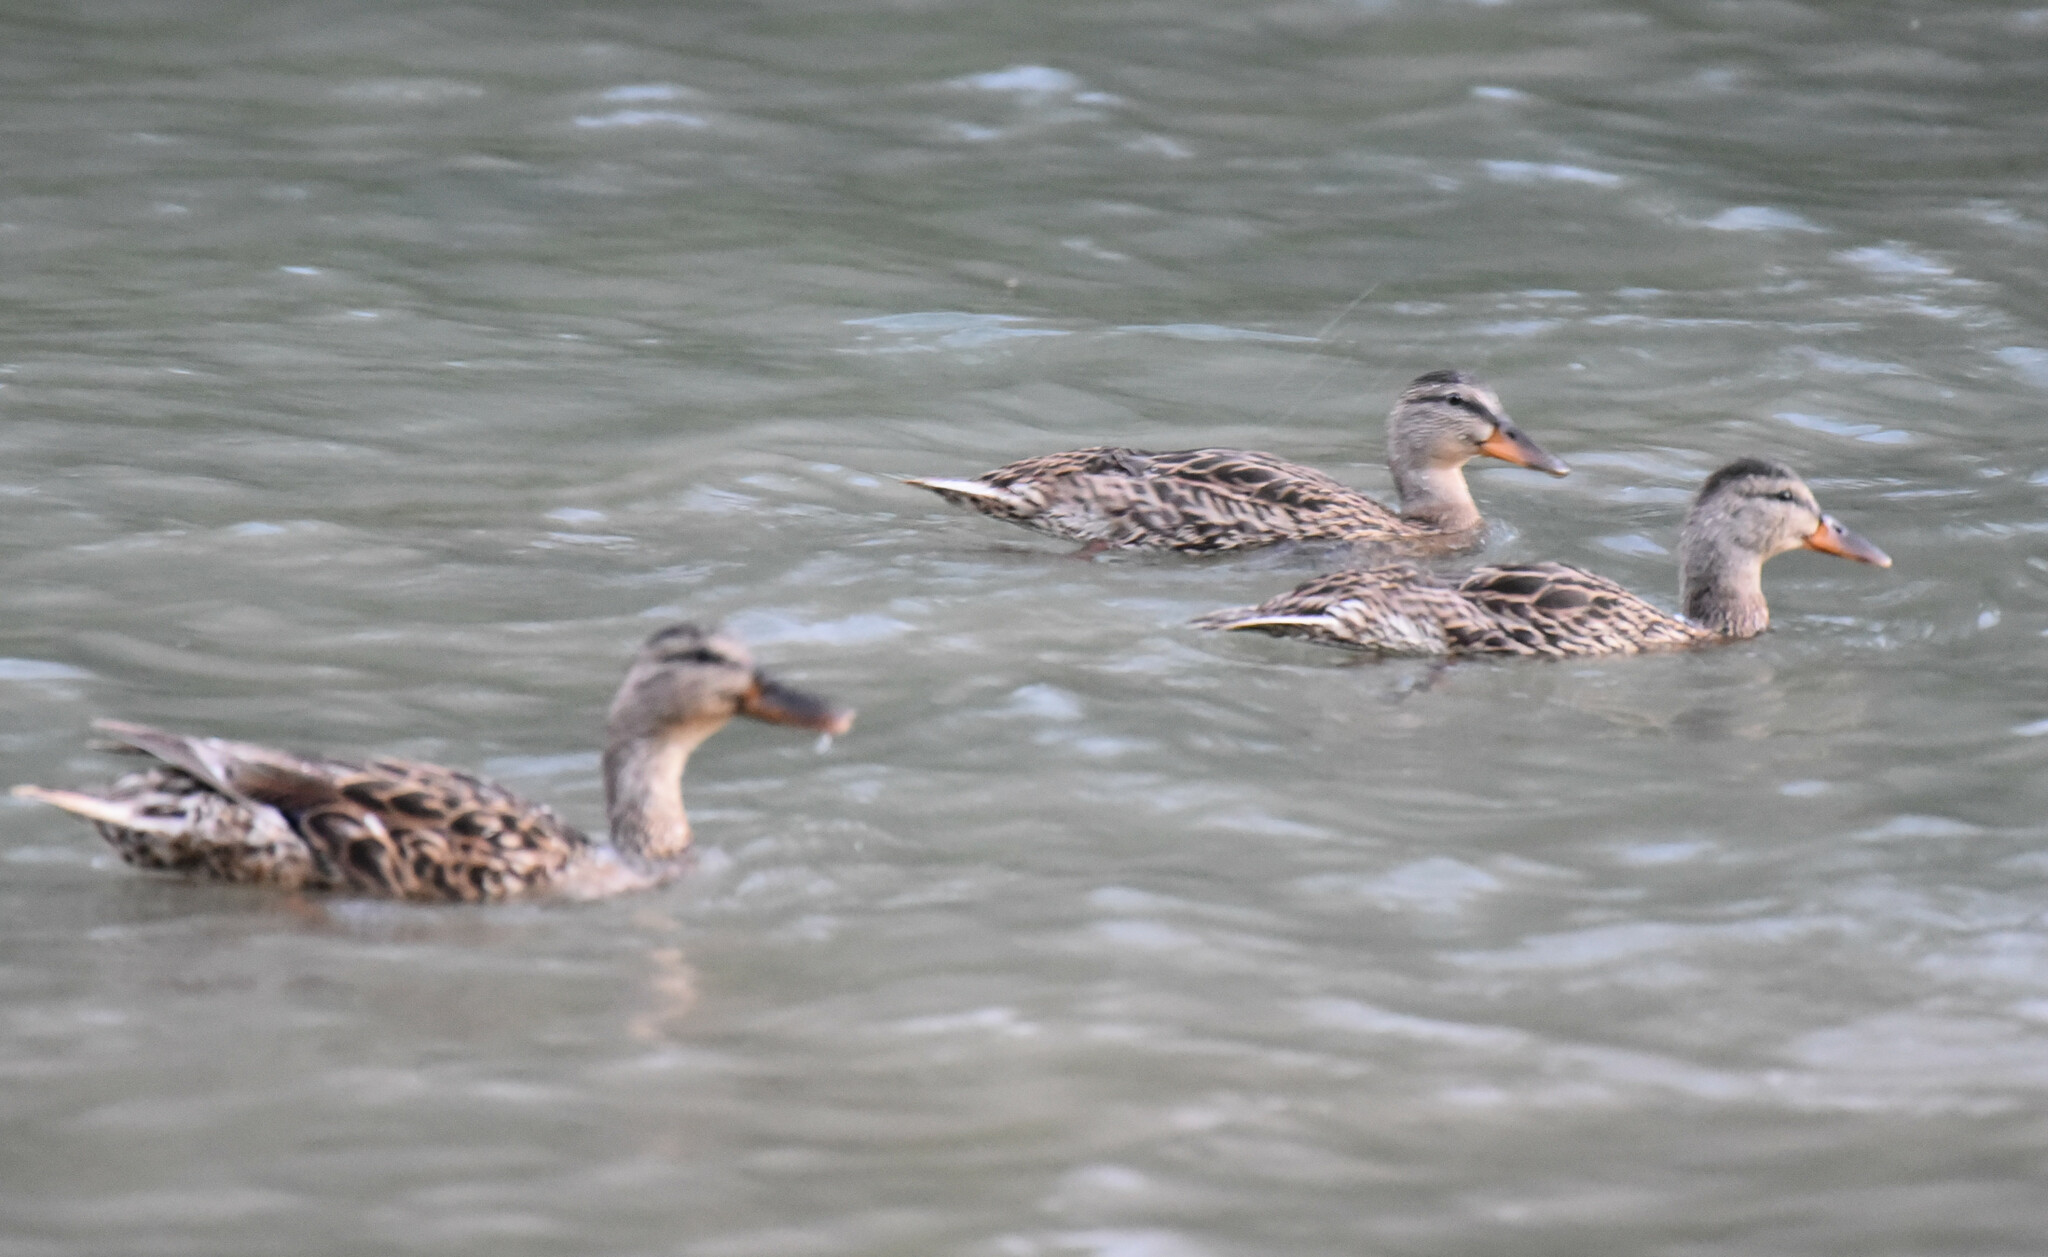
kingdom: Animalia
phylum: Chordata
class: Aves
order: Anseriformes
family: Anatidae
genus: Anas
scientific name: Anas platyrhynchos
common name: Mallard
